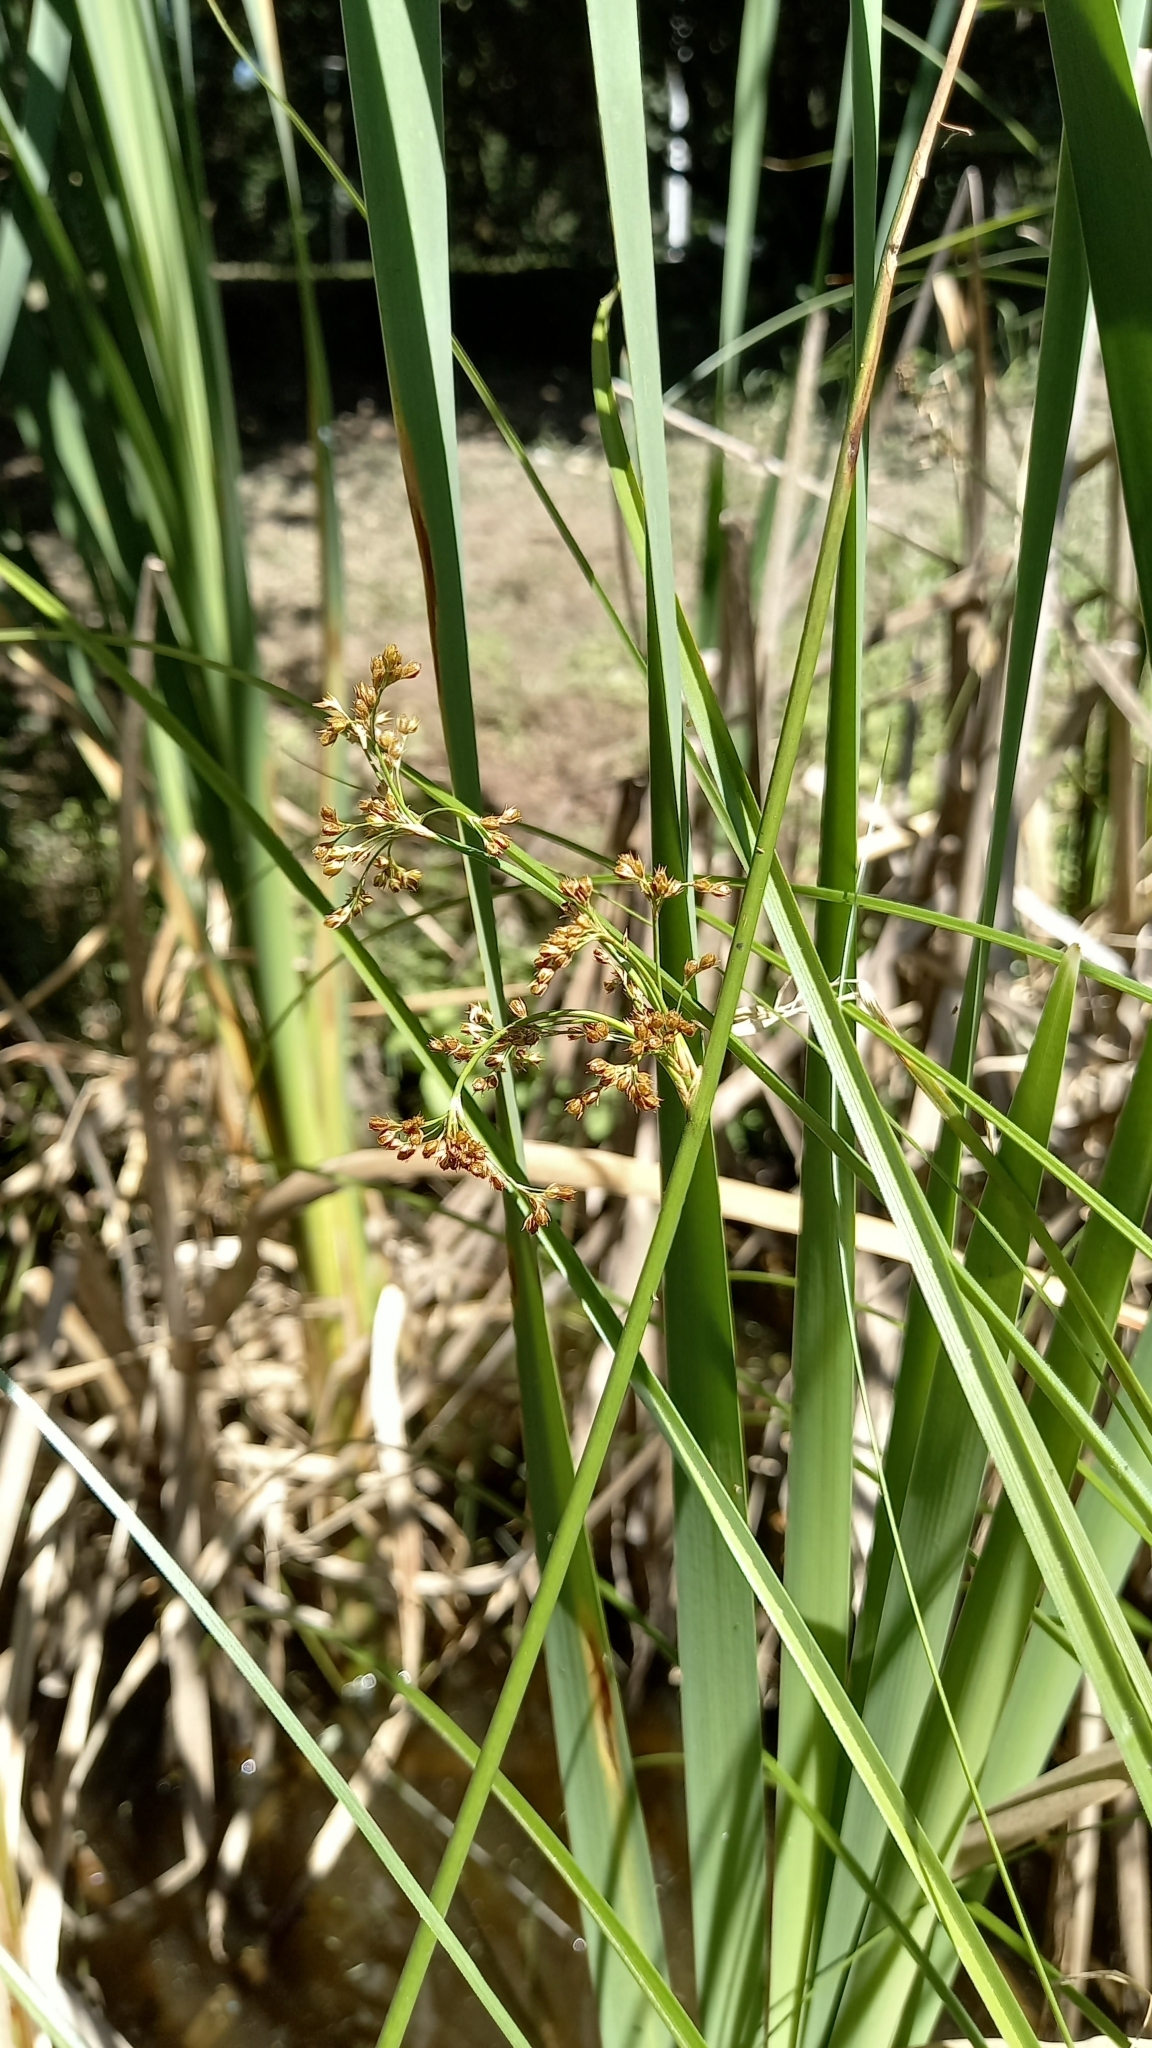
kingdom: Plantae
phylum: Tracheophyta
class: Liliopsida
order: Poales
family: Juncaceae
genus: Juncus
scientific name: Juncus effusus
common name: Soft rush
